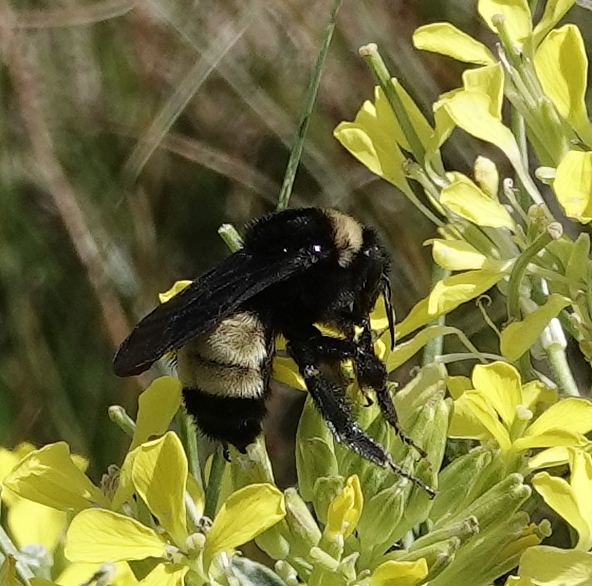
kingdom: Animalia
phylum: Arthropoda
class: Insecta
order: Hymenoptera
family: Apidae
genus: Bombus
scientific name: Bombus pensylvanicus
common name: Bumble bee
